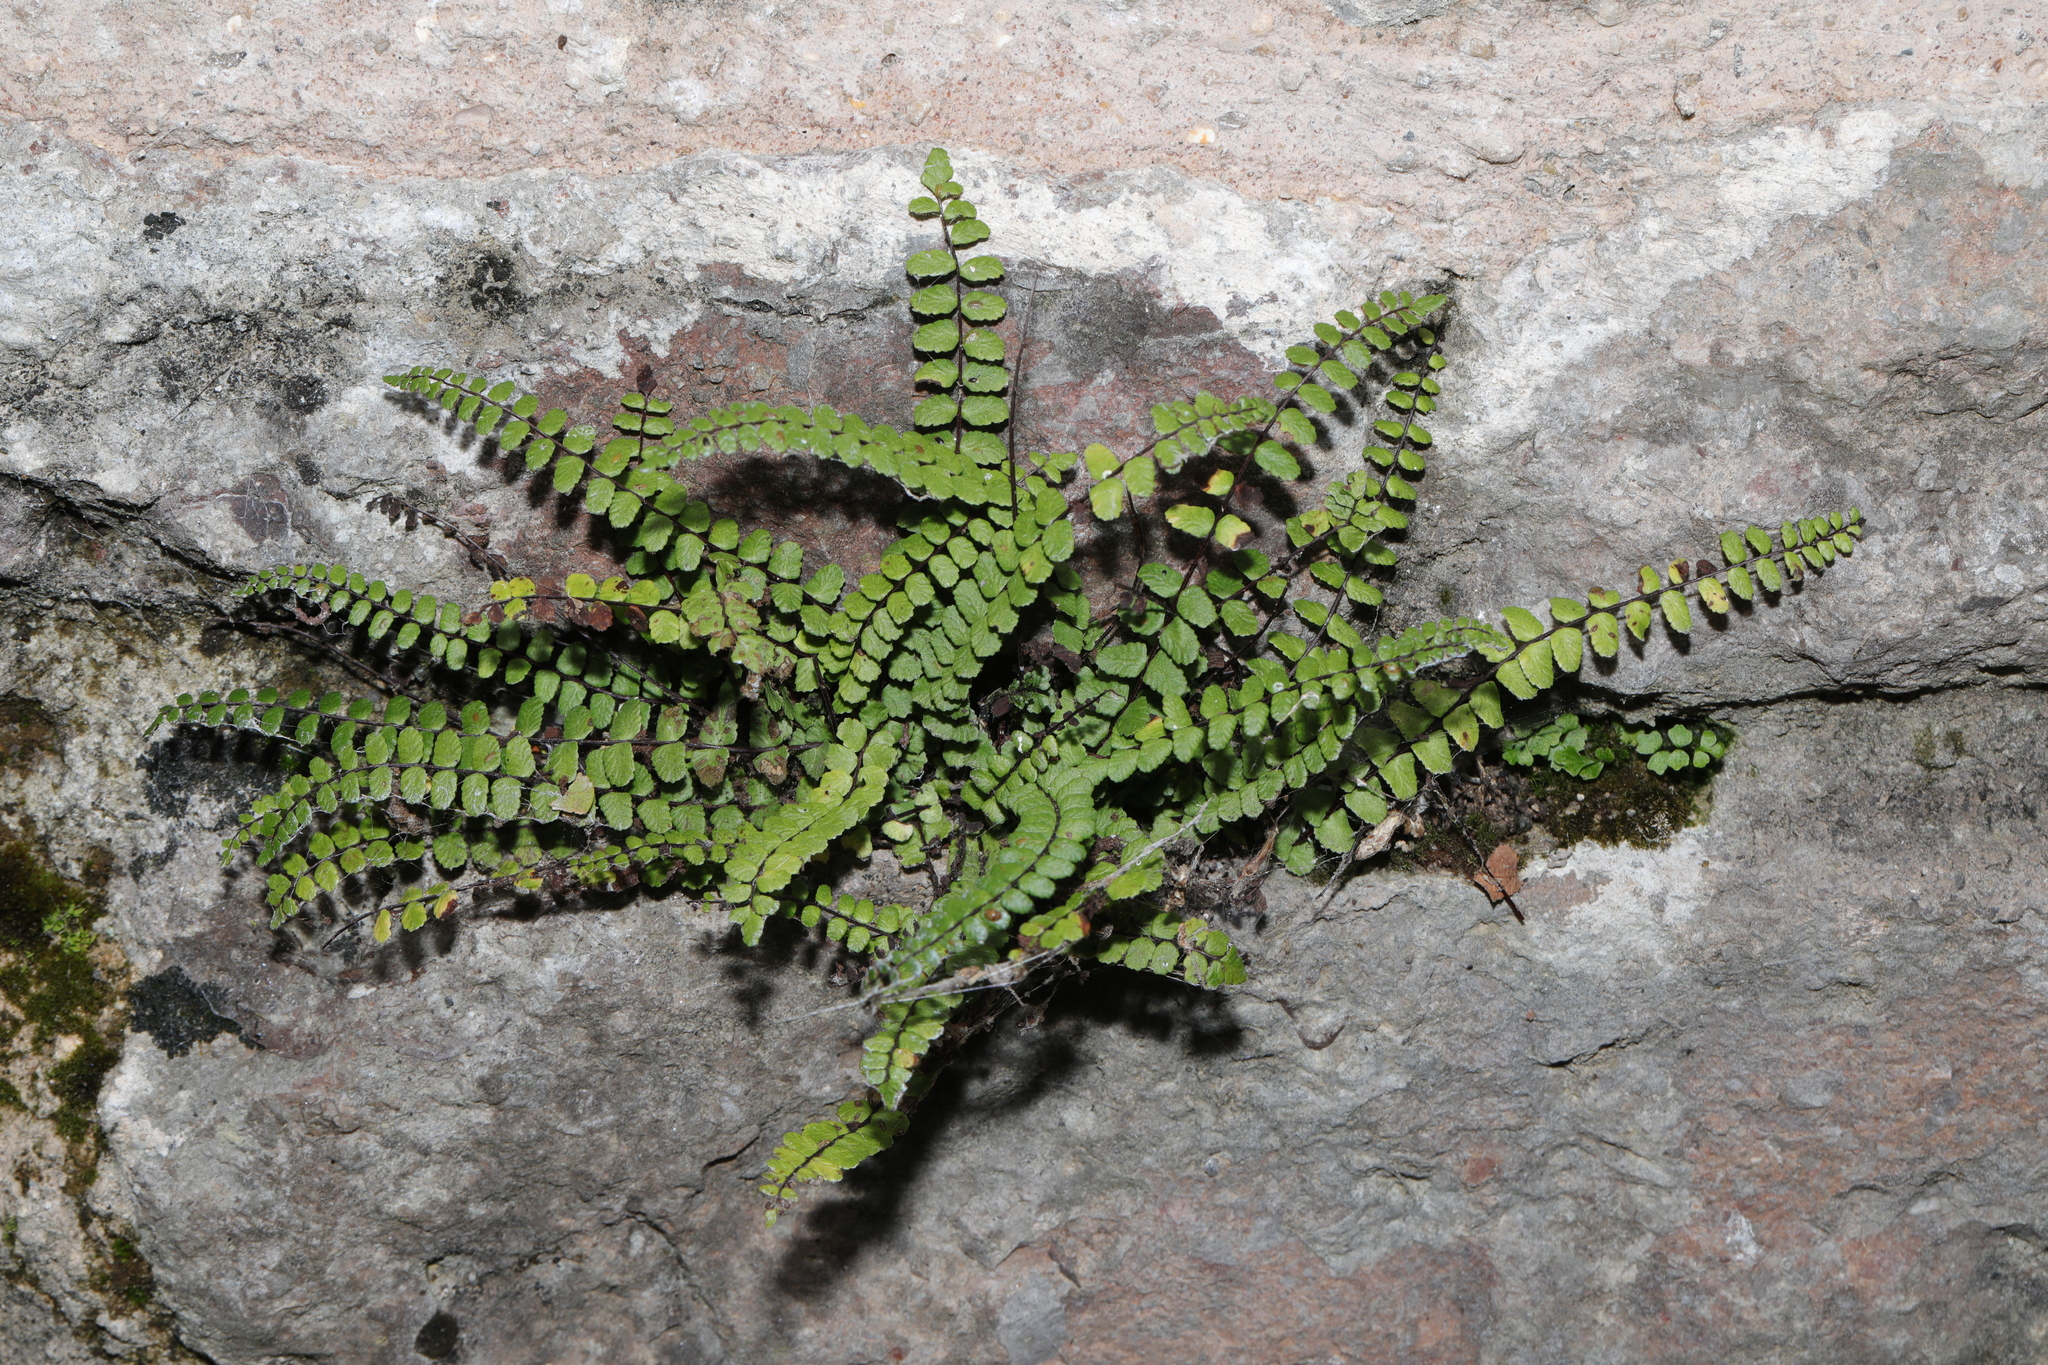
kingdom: Plantae
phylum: Tracheophyta
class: Polypodiopsida
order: Polypodiales
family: Aspleniaceae
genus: Asplenium
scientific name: Asplenium trichomanes
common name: Maidenhair spleenwort
